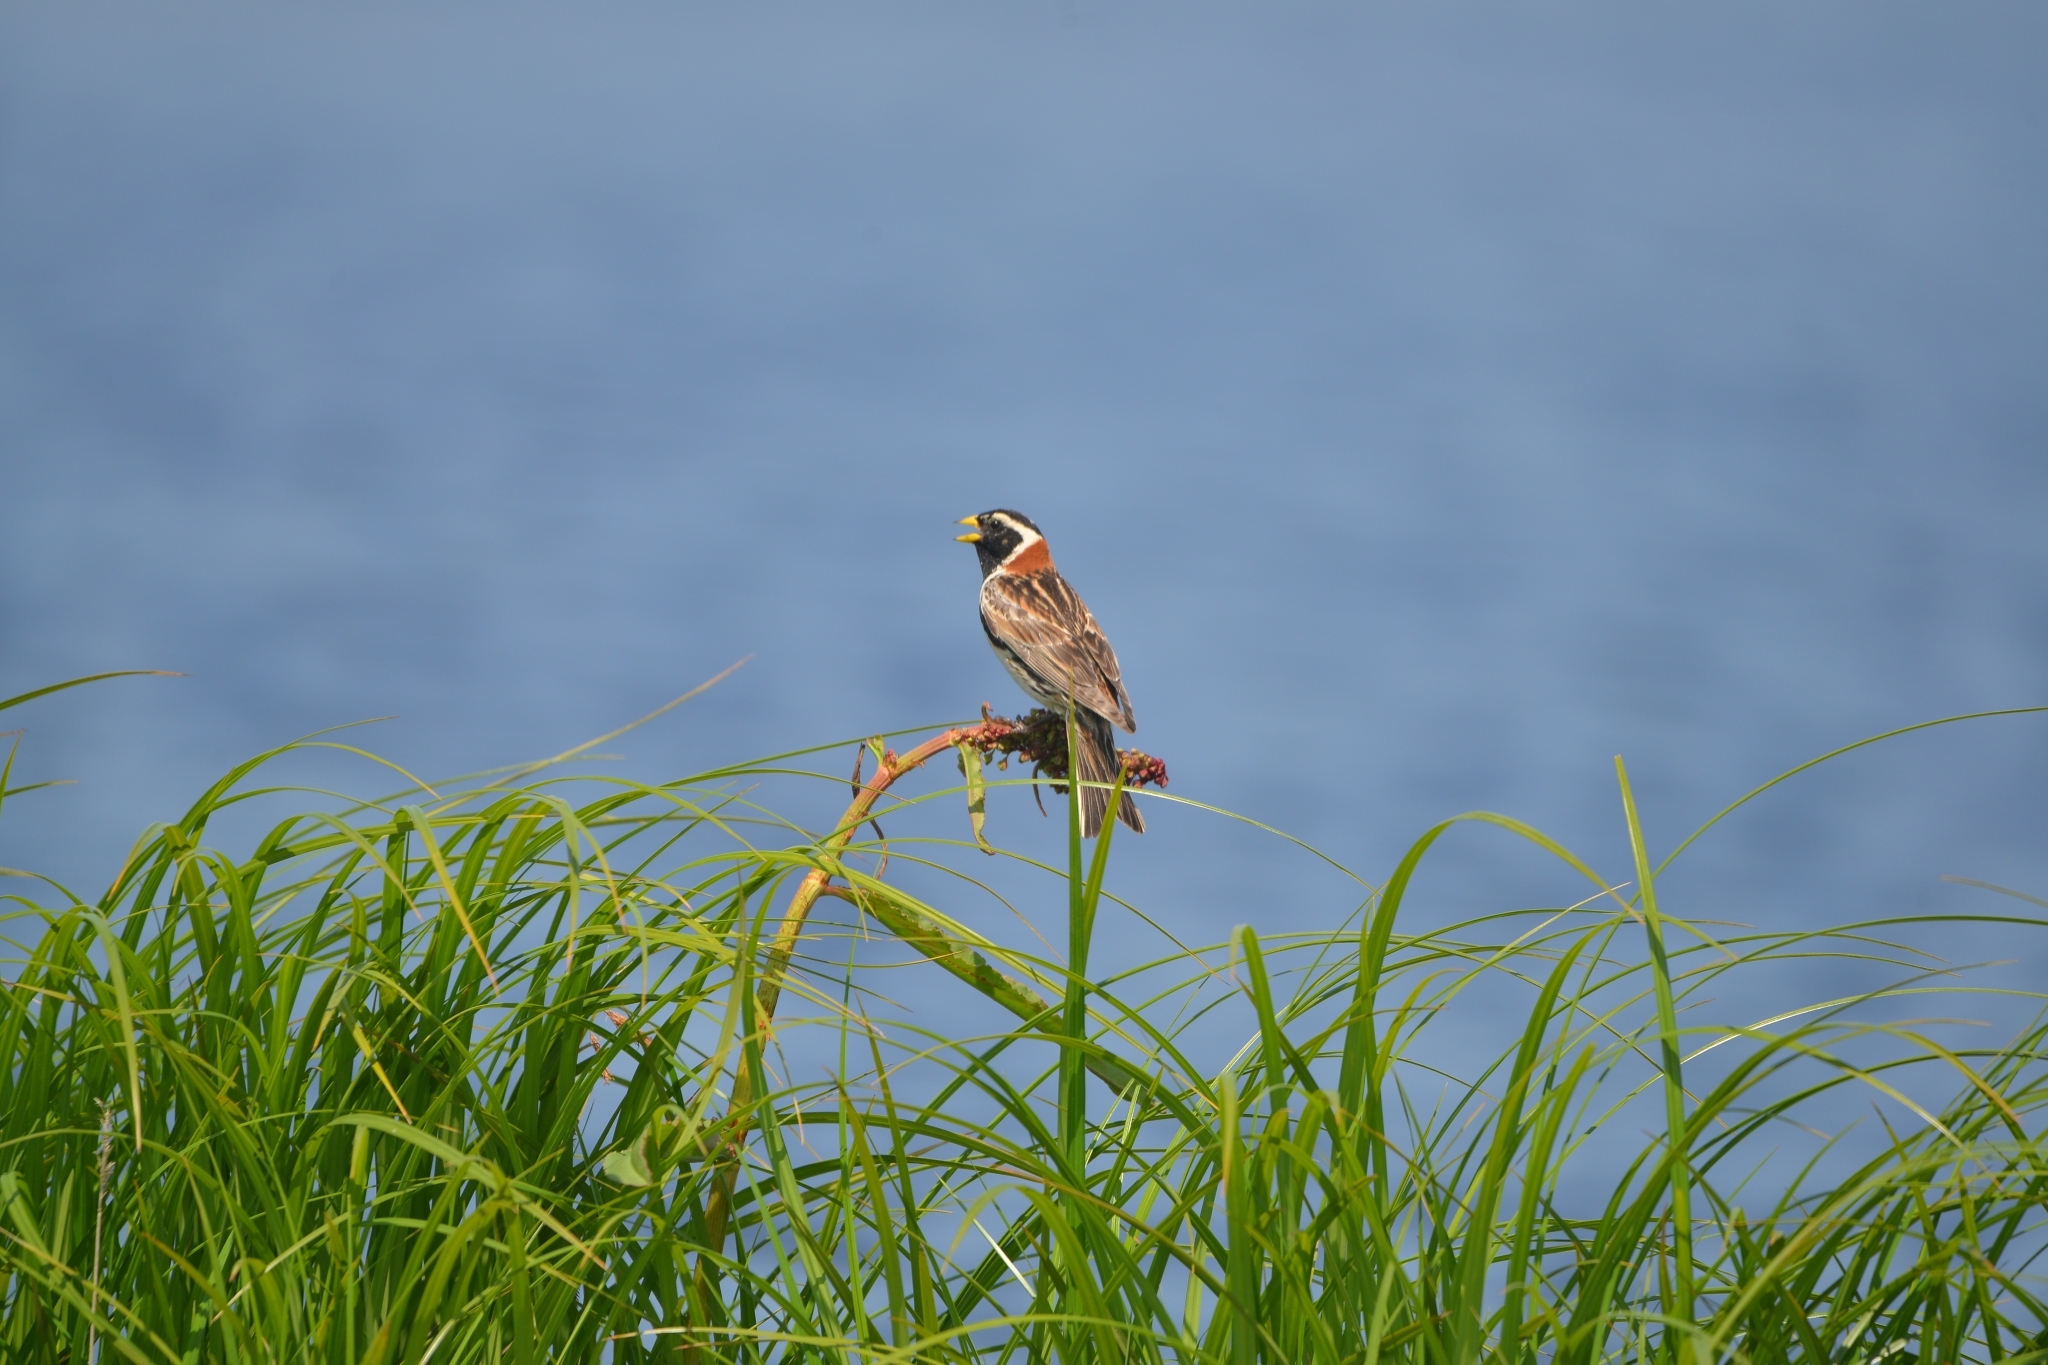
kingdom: Animalia
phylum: Chordata
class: Aves
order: Passeriformes
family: Calcariidae
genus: Calcarius
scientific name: Calcarius lapponicus
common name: Lapland longspur
